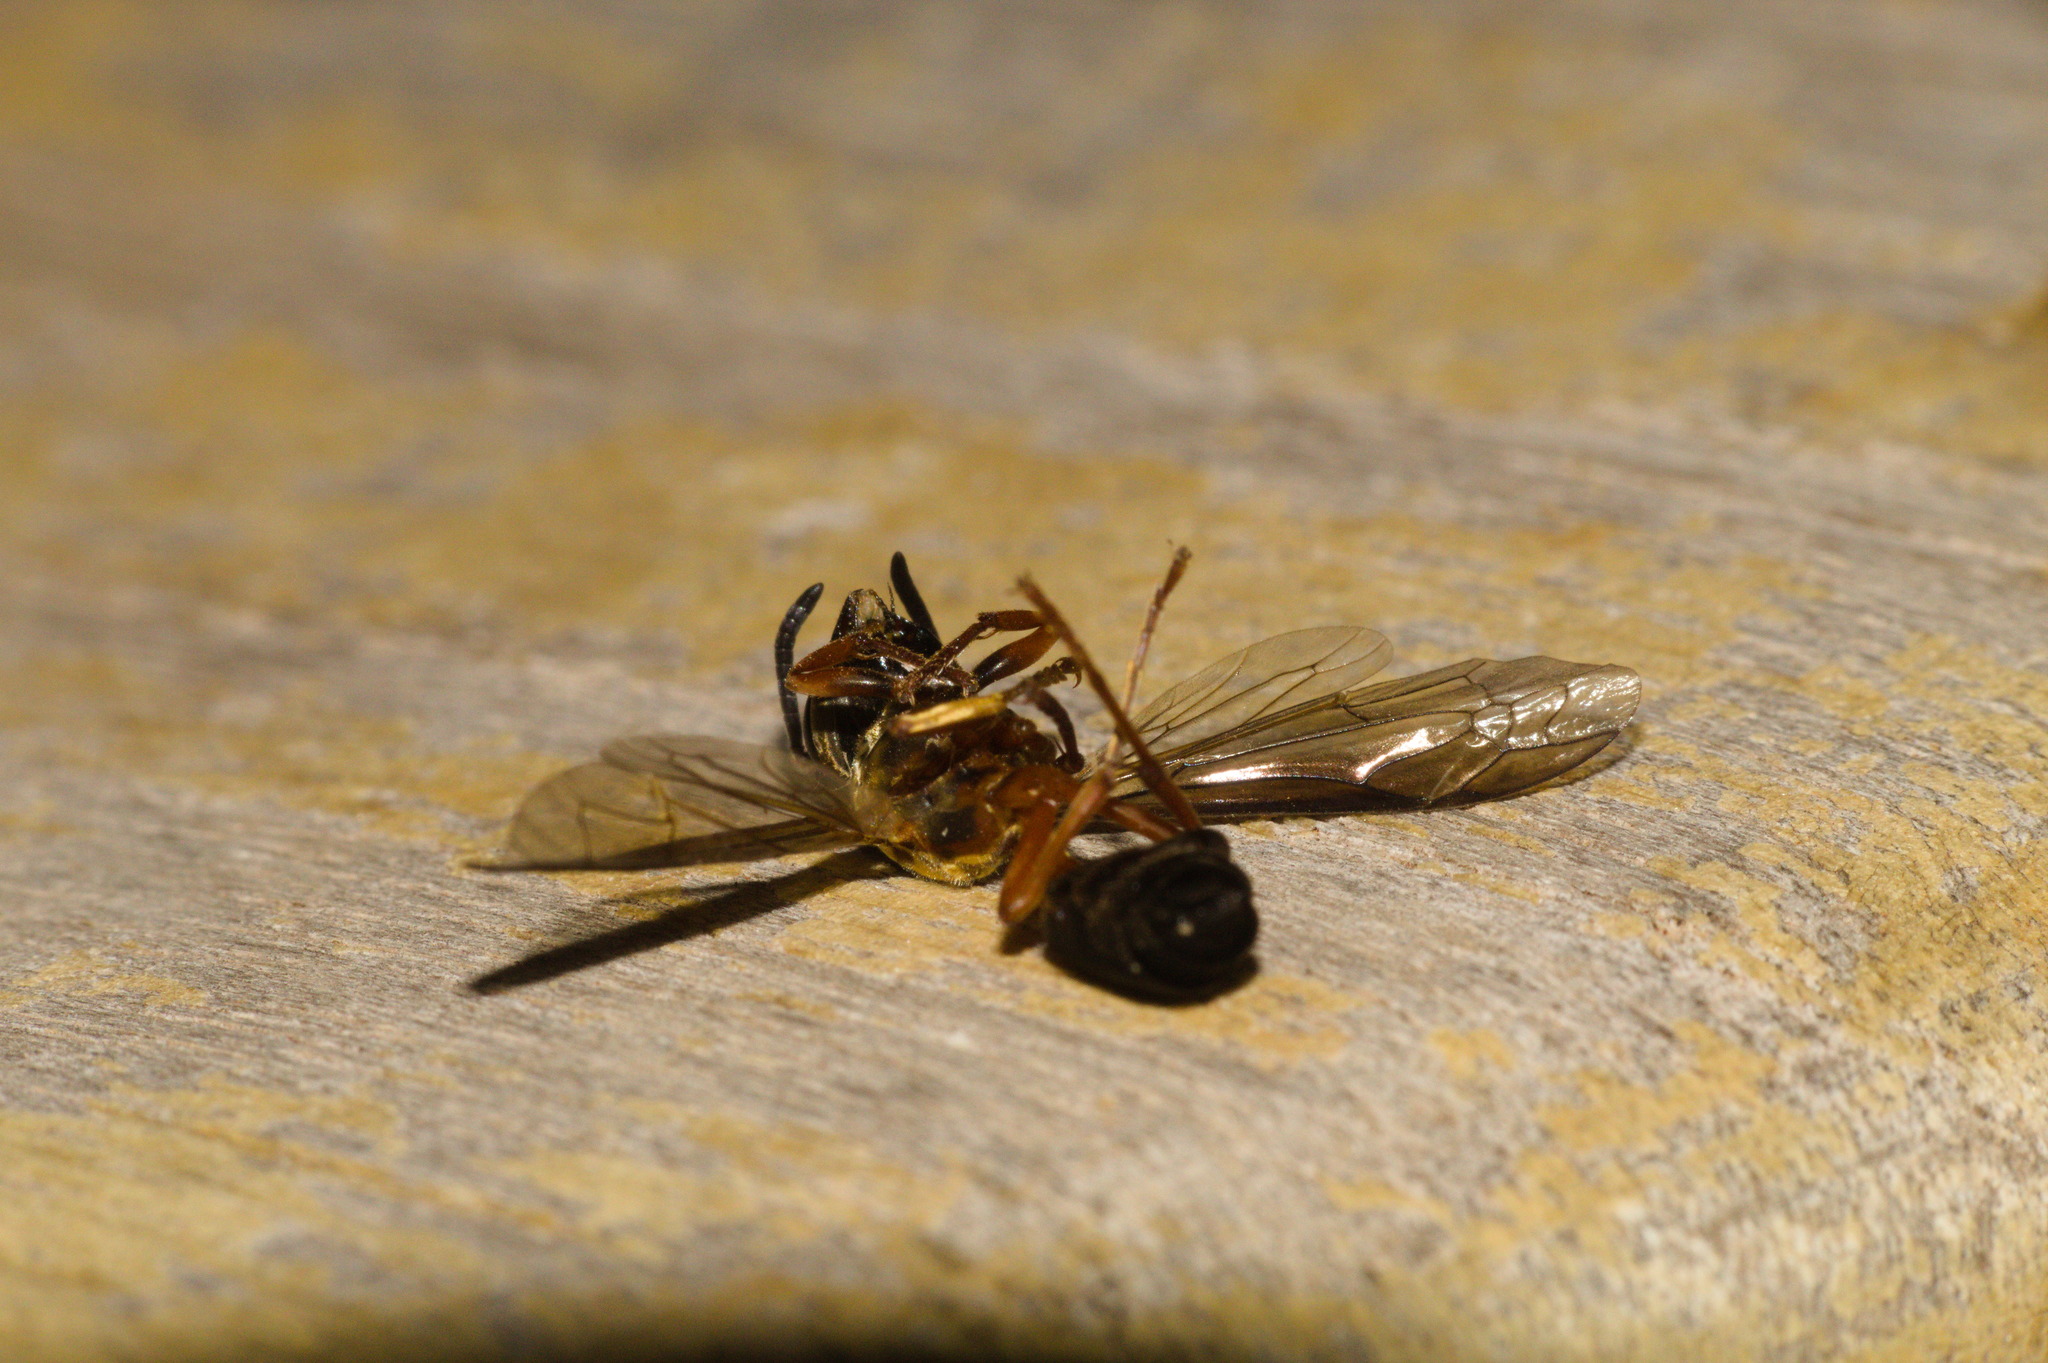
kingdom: Animalia
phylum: Arthropoda
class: Insecta
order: Hymenoptera
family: Eumenidae
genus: Polybia
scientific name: Polybia sericea
